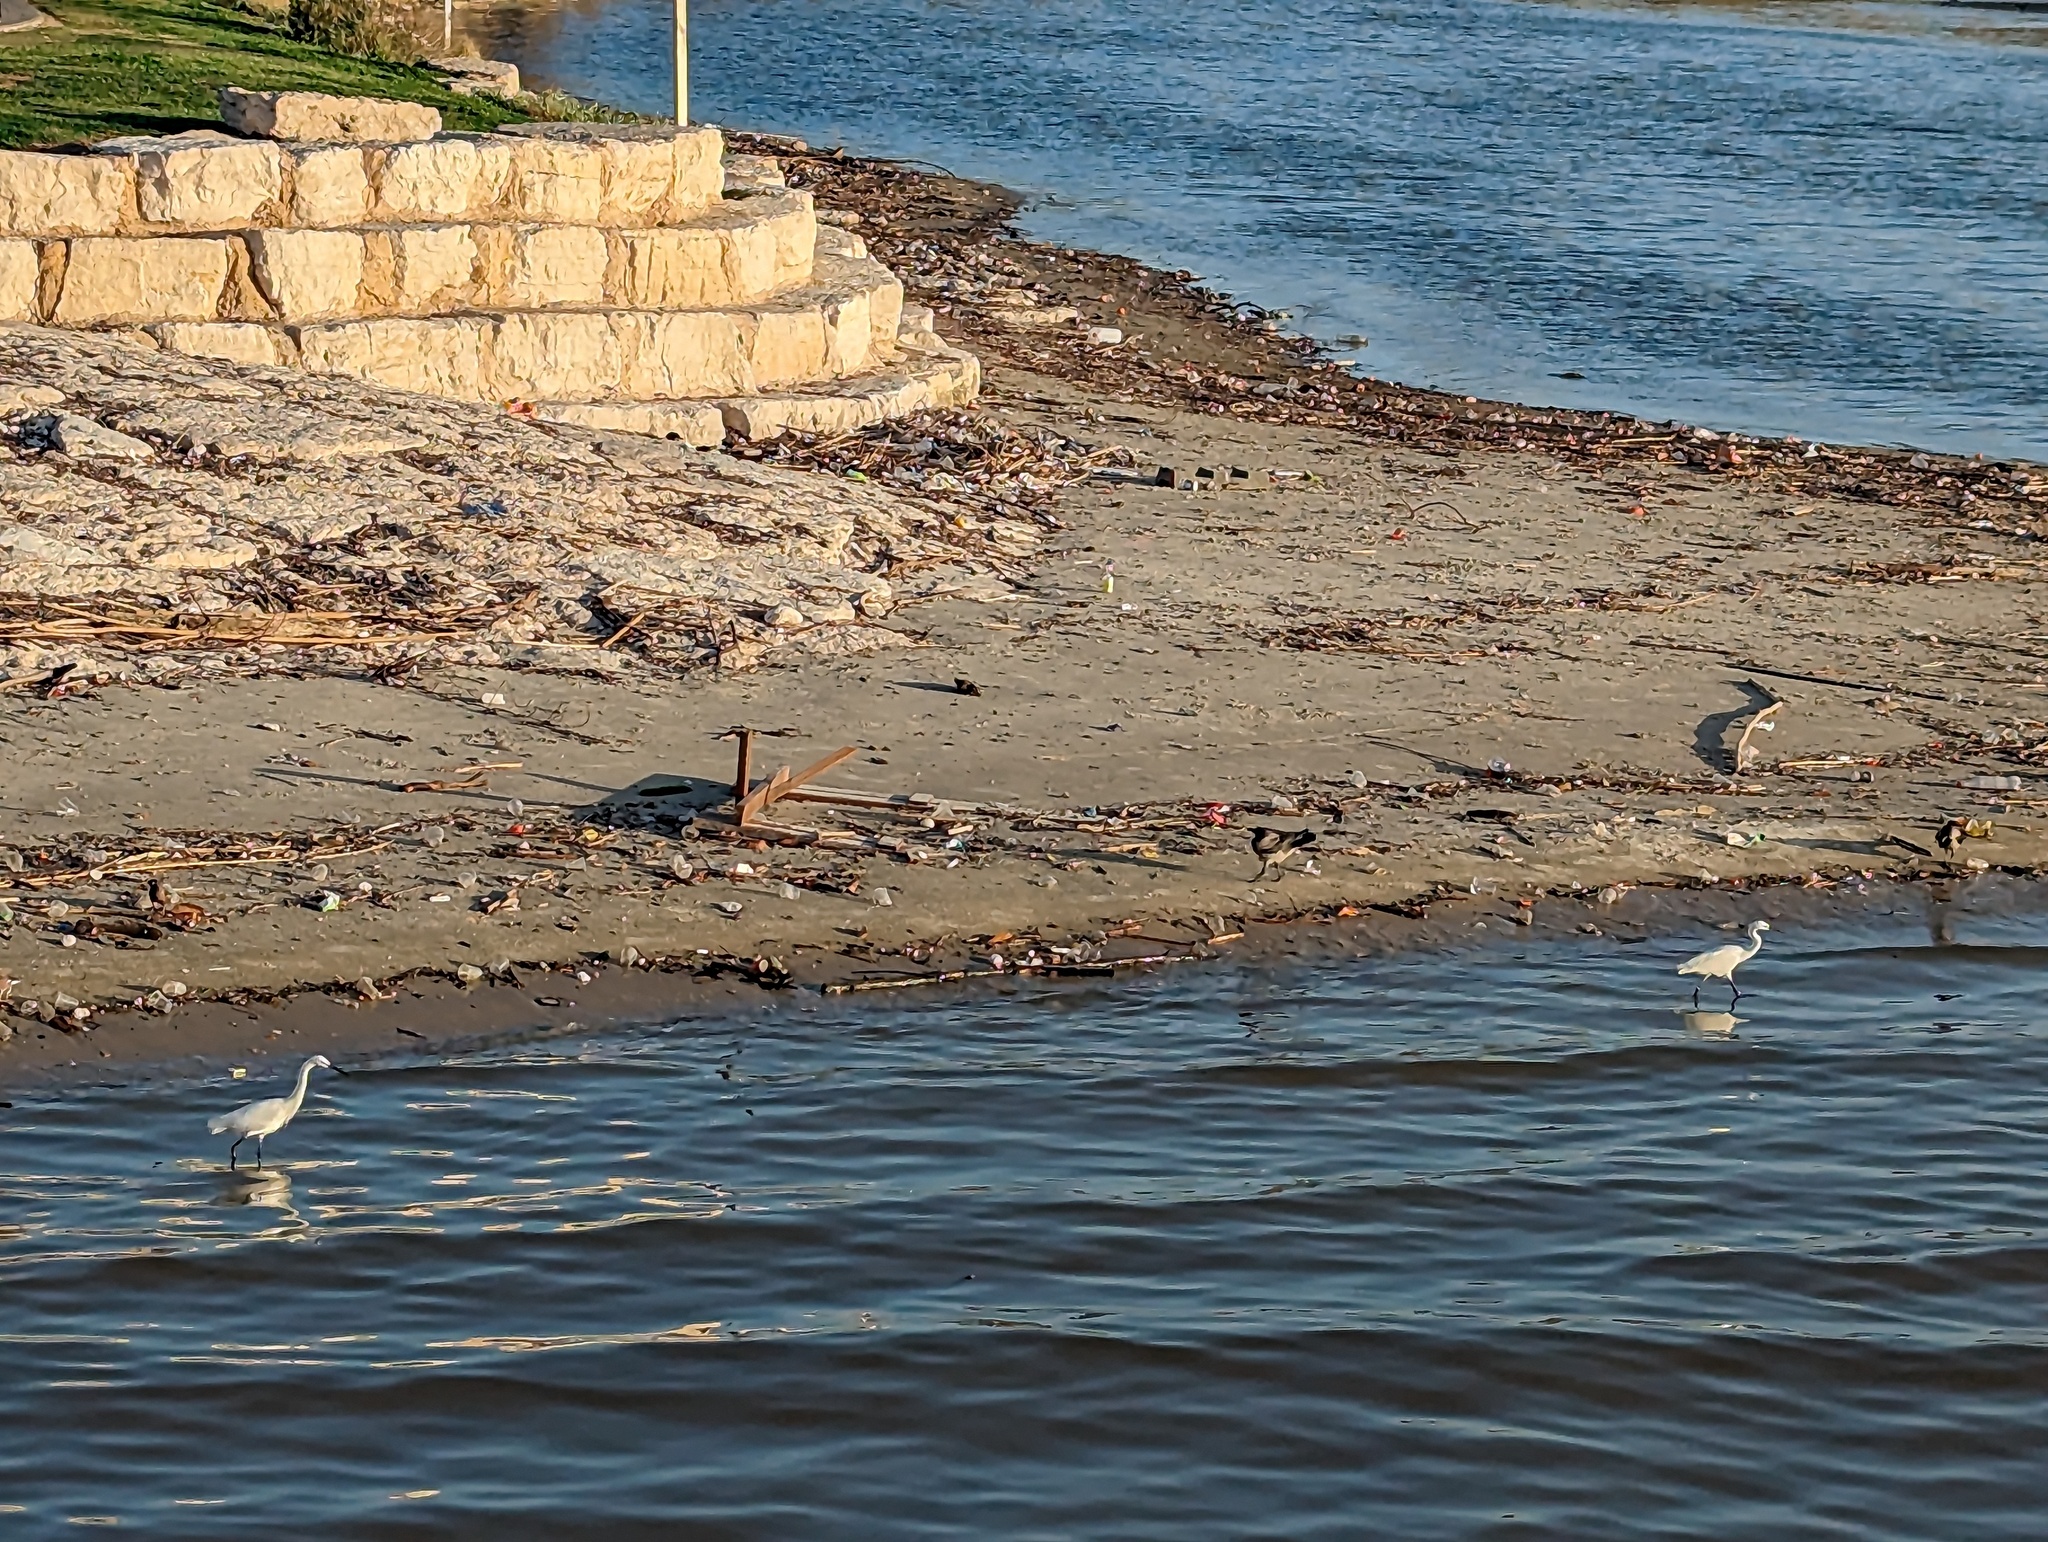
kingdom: Animalia
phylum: Chordata
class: Aves
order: Pelecaniformes
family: Ardeidae
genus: Egretta
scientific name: Egretta garzetta
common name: Little egret
